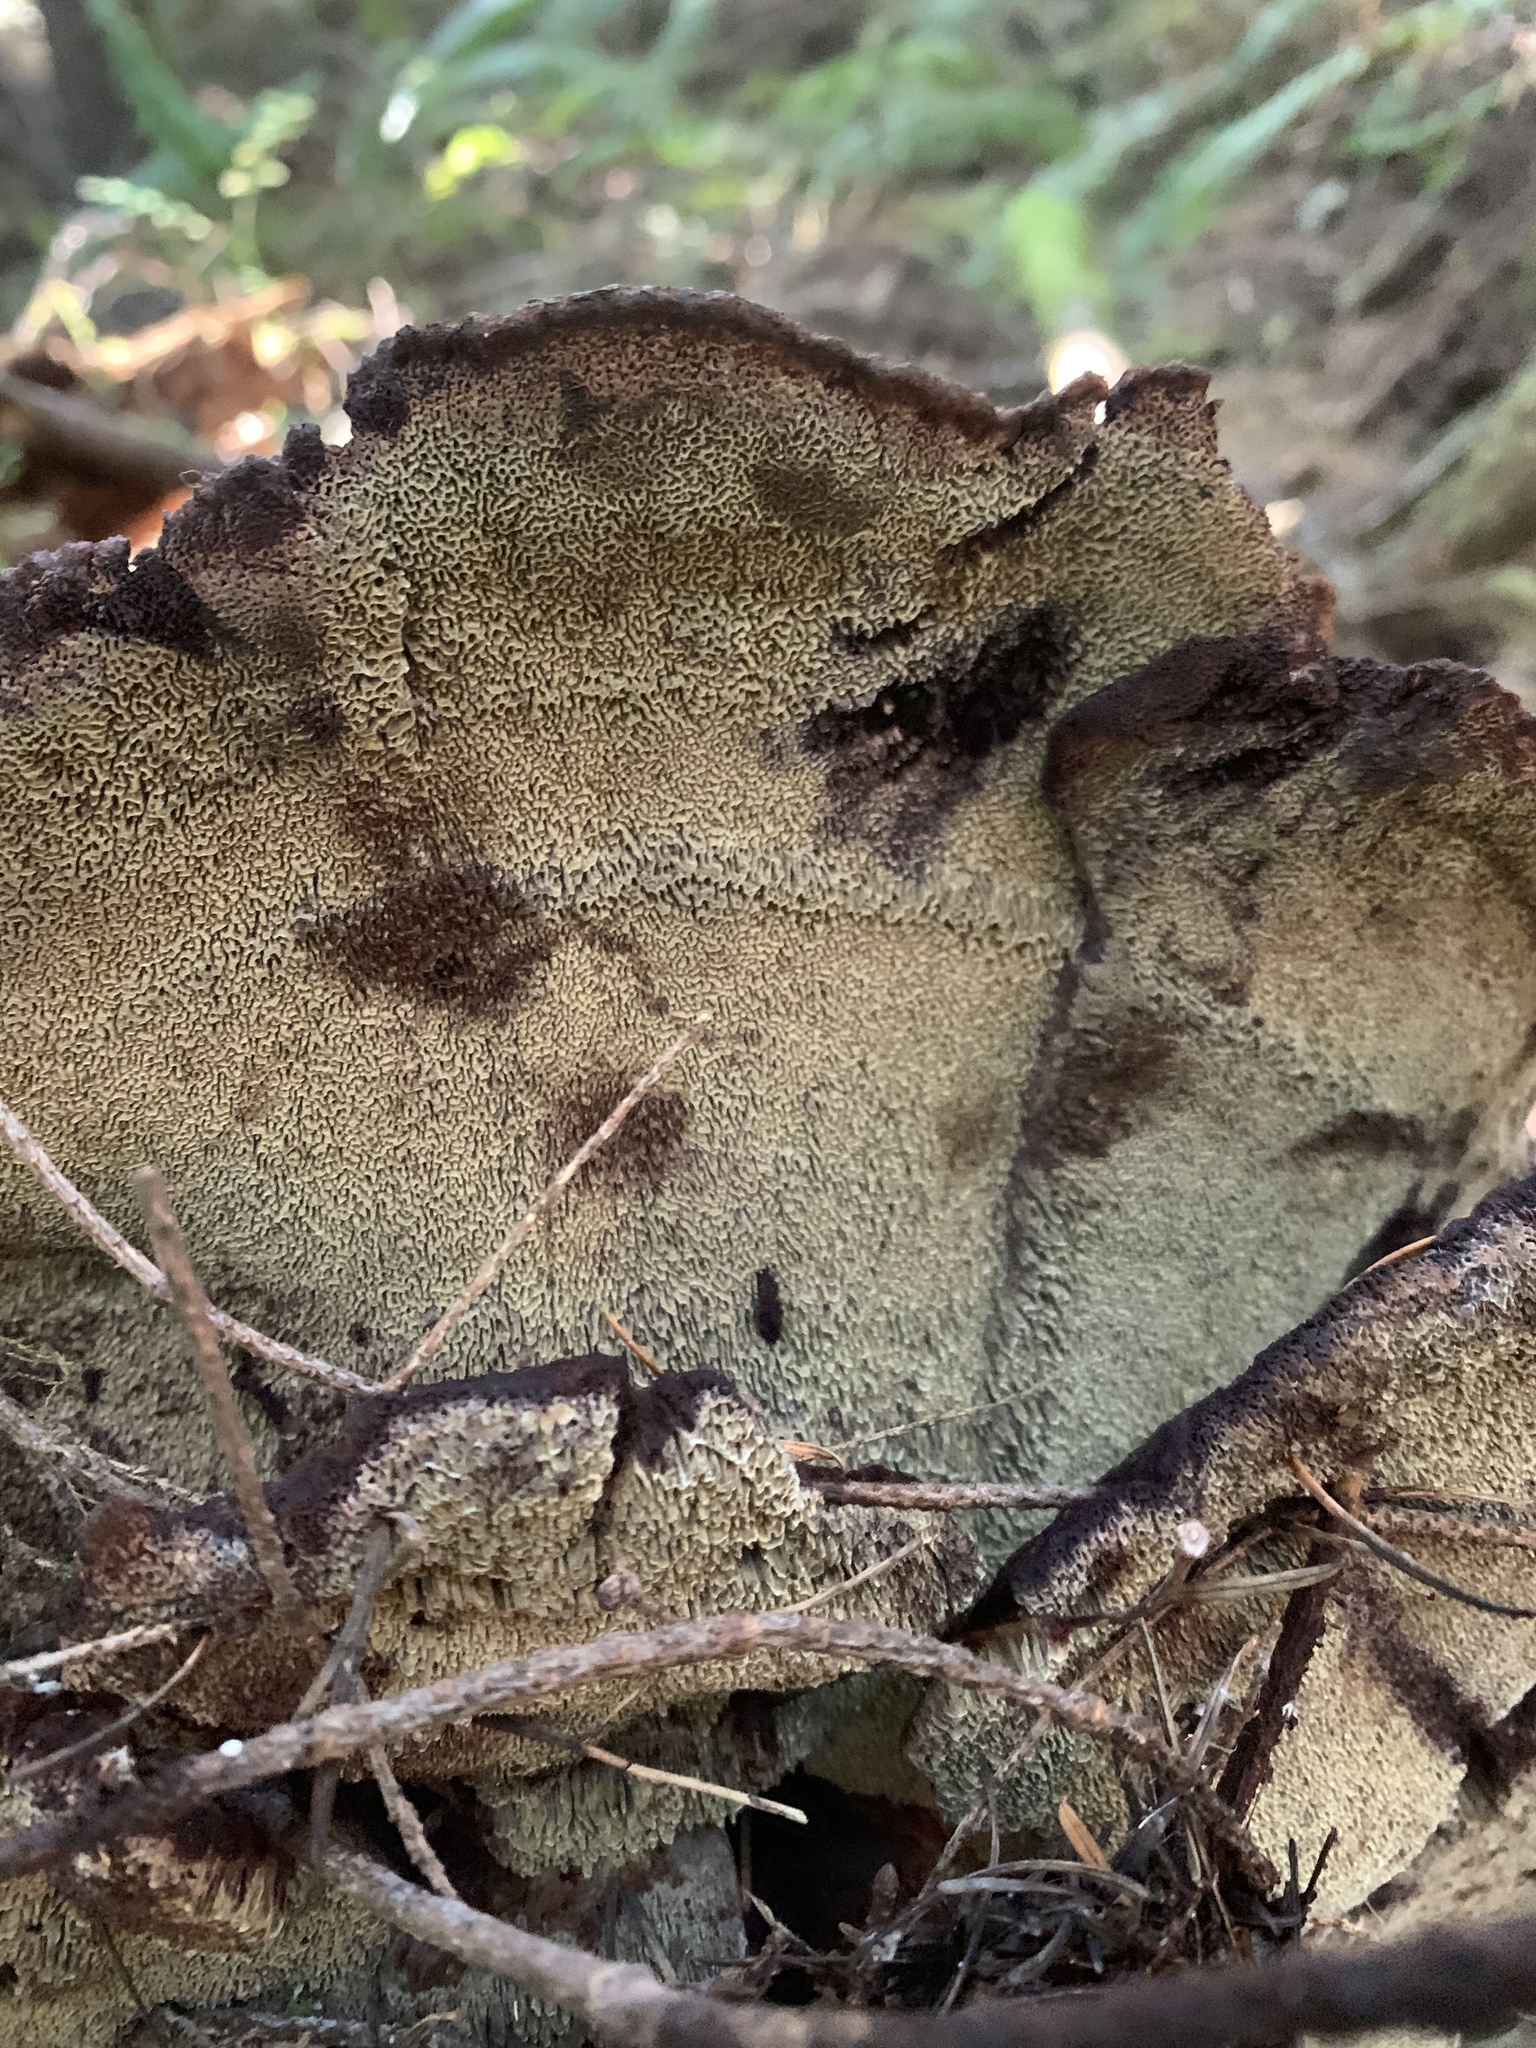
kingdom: Fungi
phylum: Basidiomycota
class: Agaricomycetes
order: Polyporales
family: Laetiporaceae
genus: Phaeolus
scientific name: Phaeolus schweinitzii
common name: Dyer's mazegill
